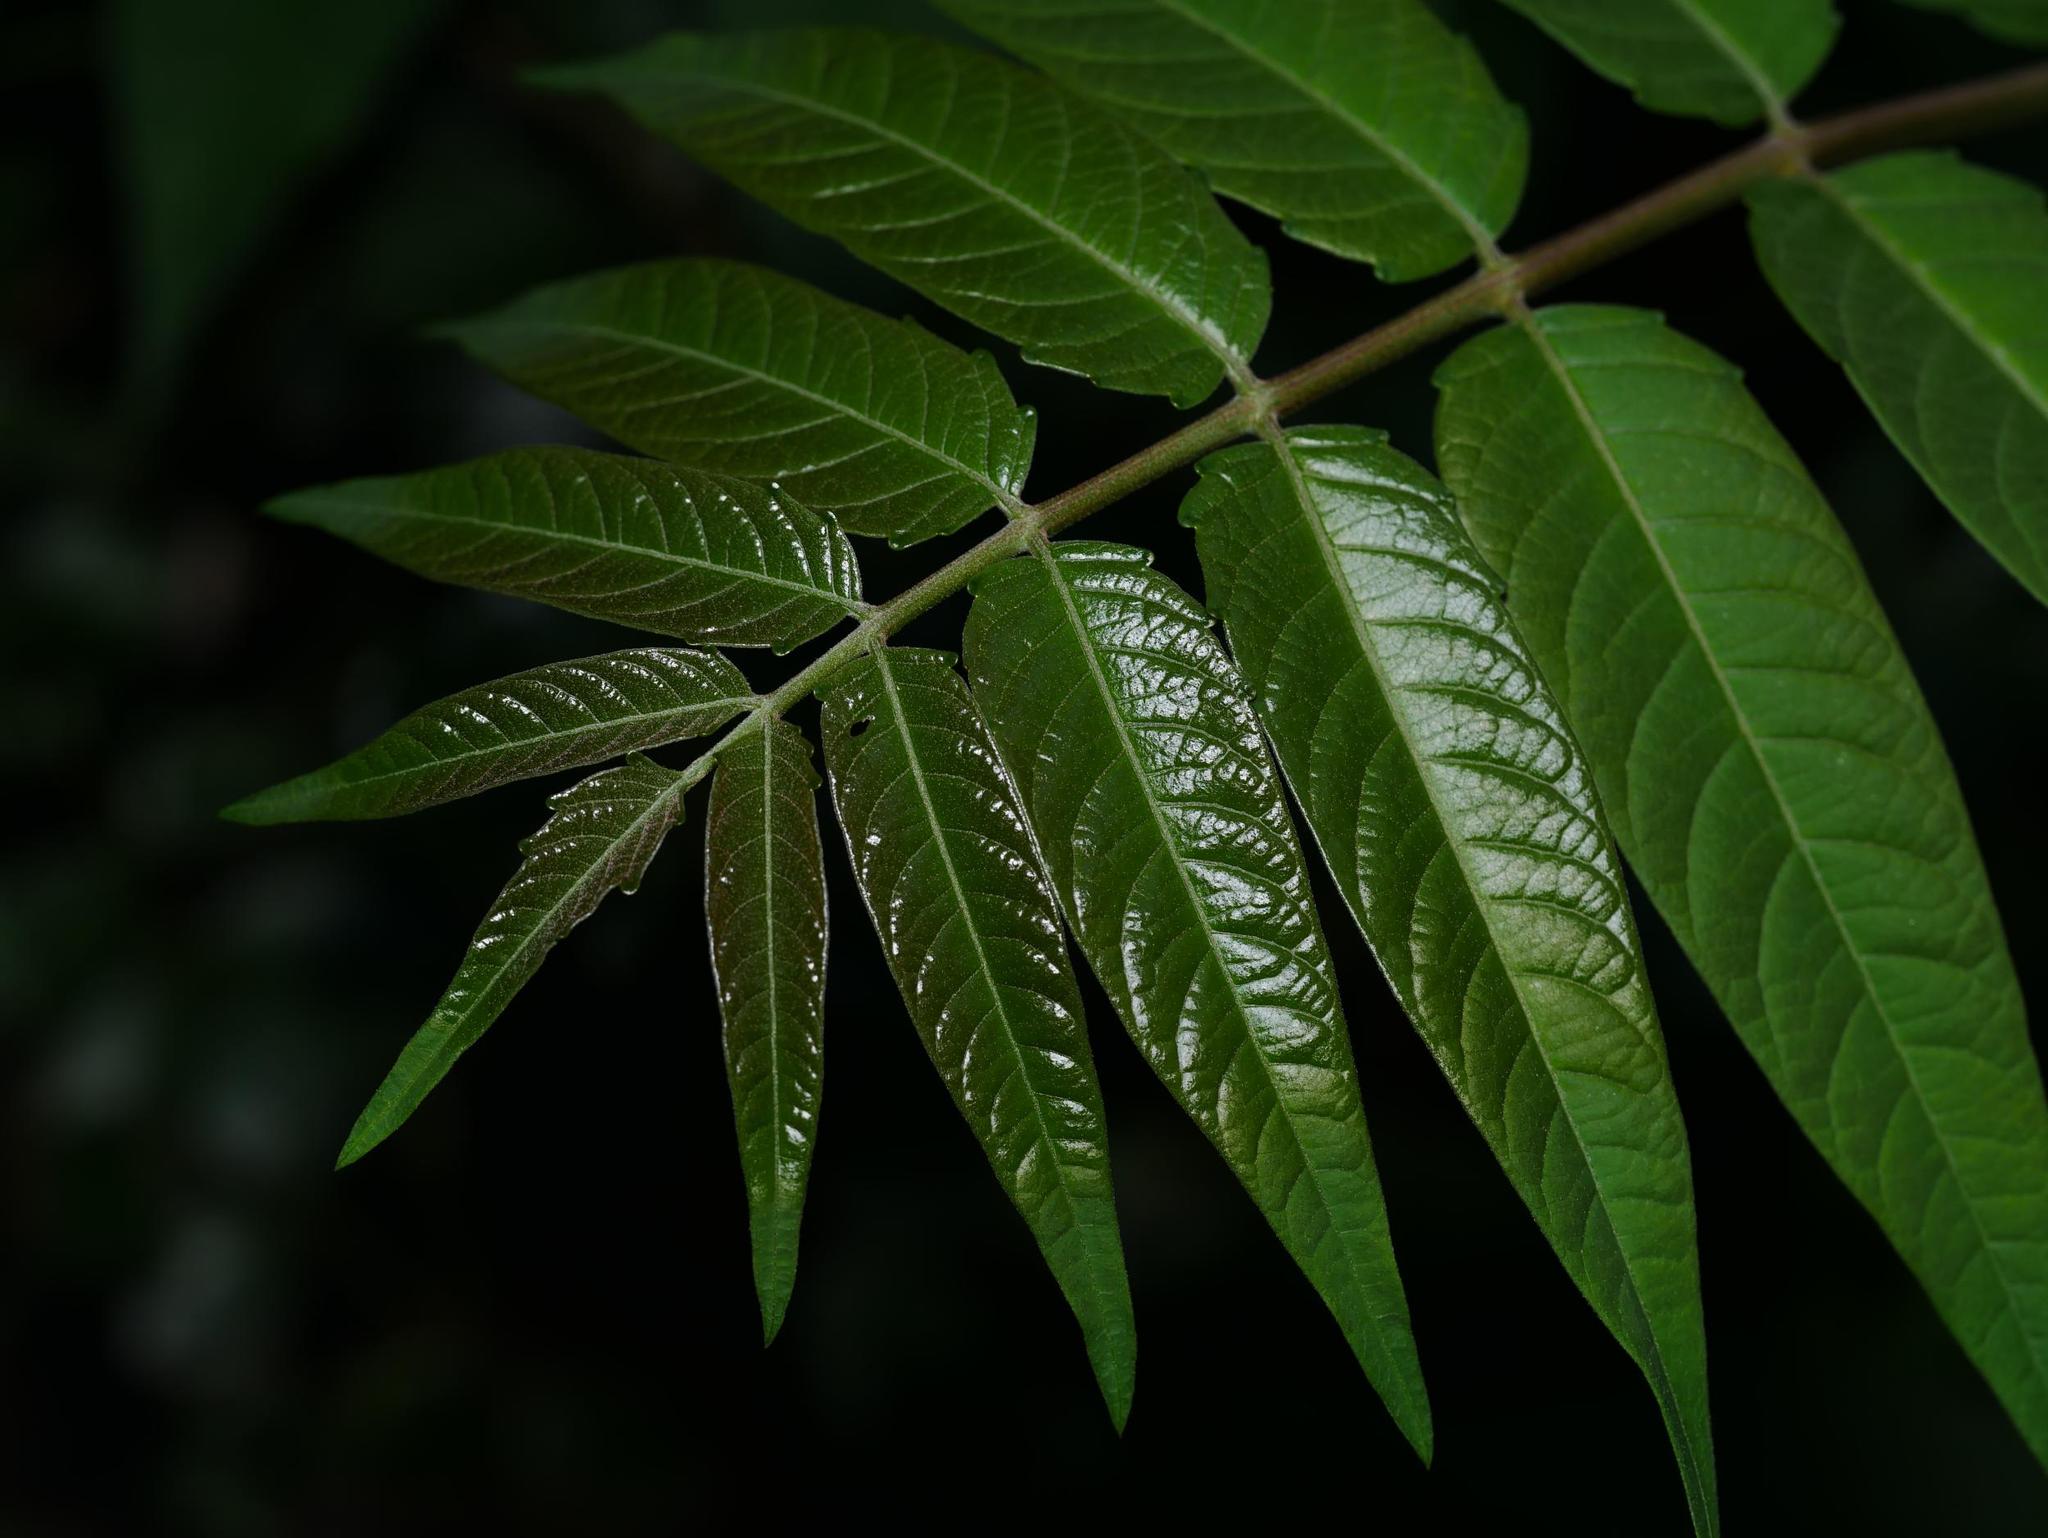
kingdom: Plantae
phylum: Tracheophyta
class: Magnoliopsida
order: Sapindales
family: Simaroubaceae
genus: Ailanthus
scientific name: Ailanthus altissima
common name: Tree-of-heaven
